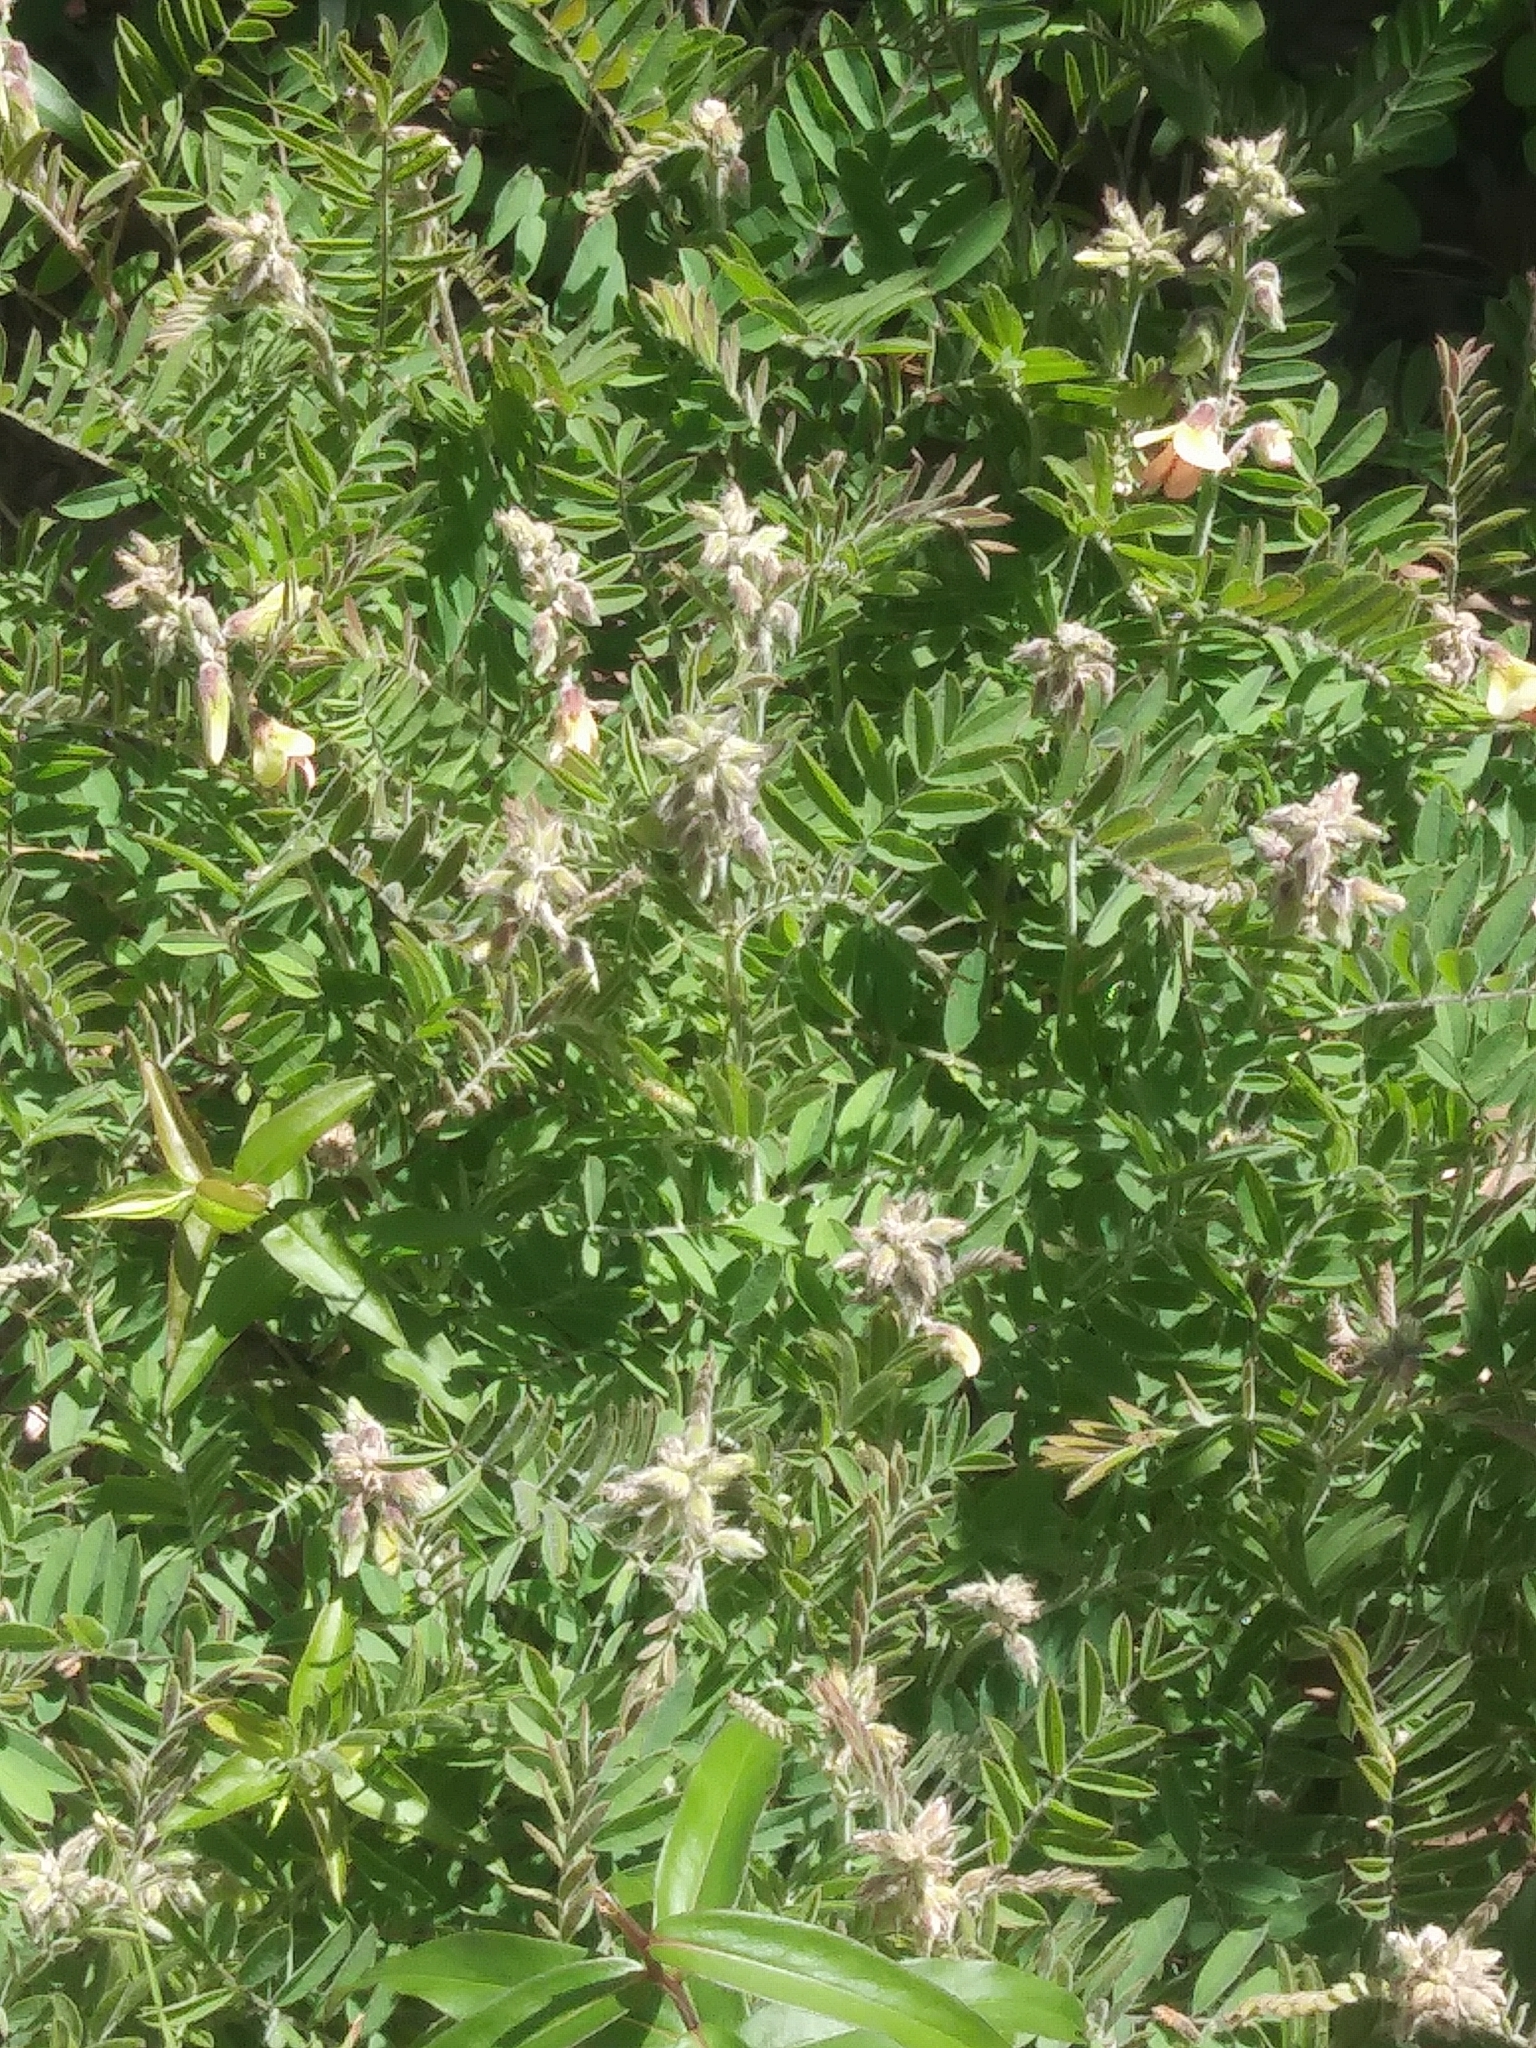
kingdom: Plantae
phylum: Tracheophyta
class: Magnoliopsida
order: Fabales
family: Fabaceae
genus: Tephrosia
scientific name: Tephrosia virginiana
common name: Rabbit-pea
